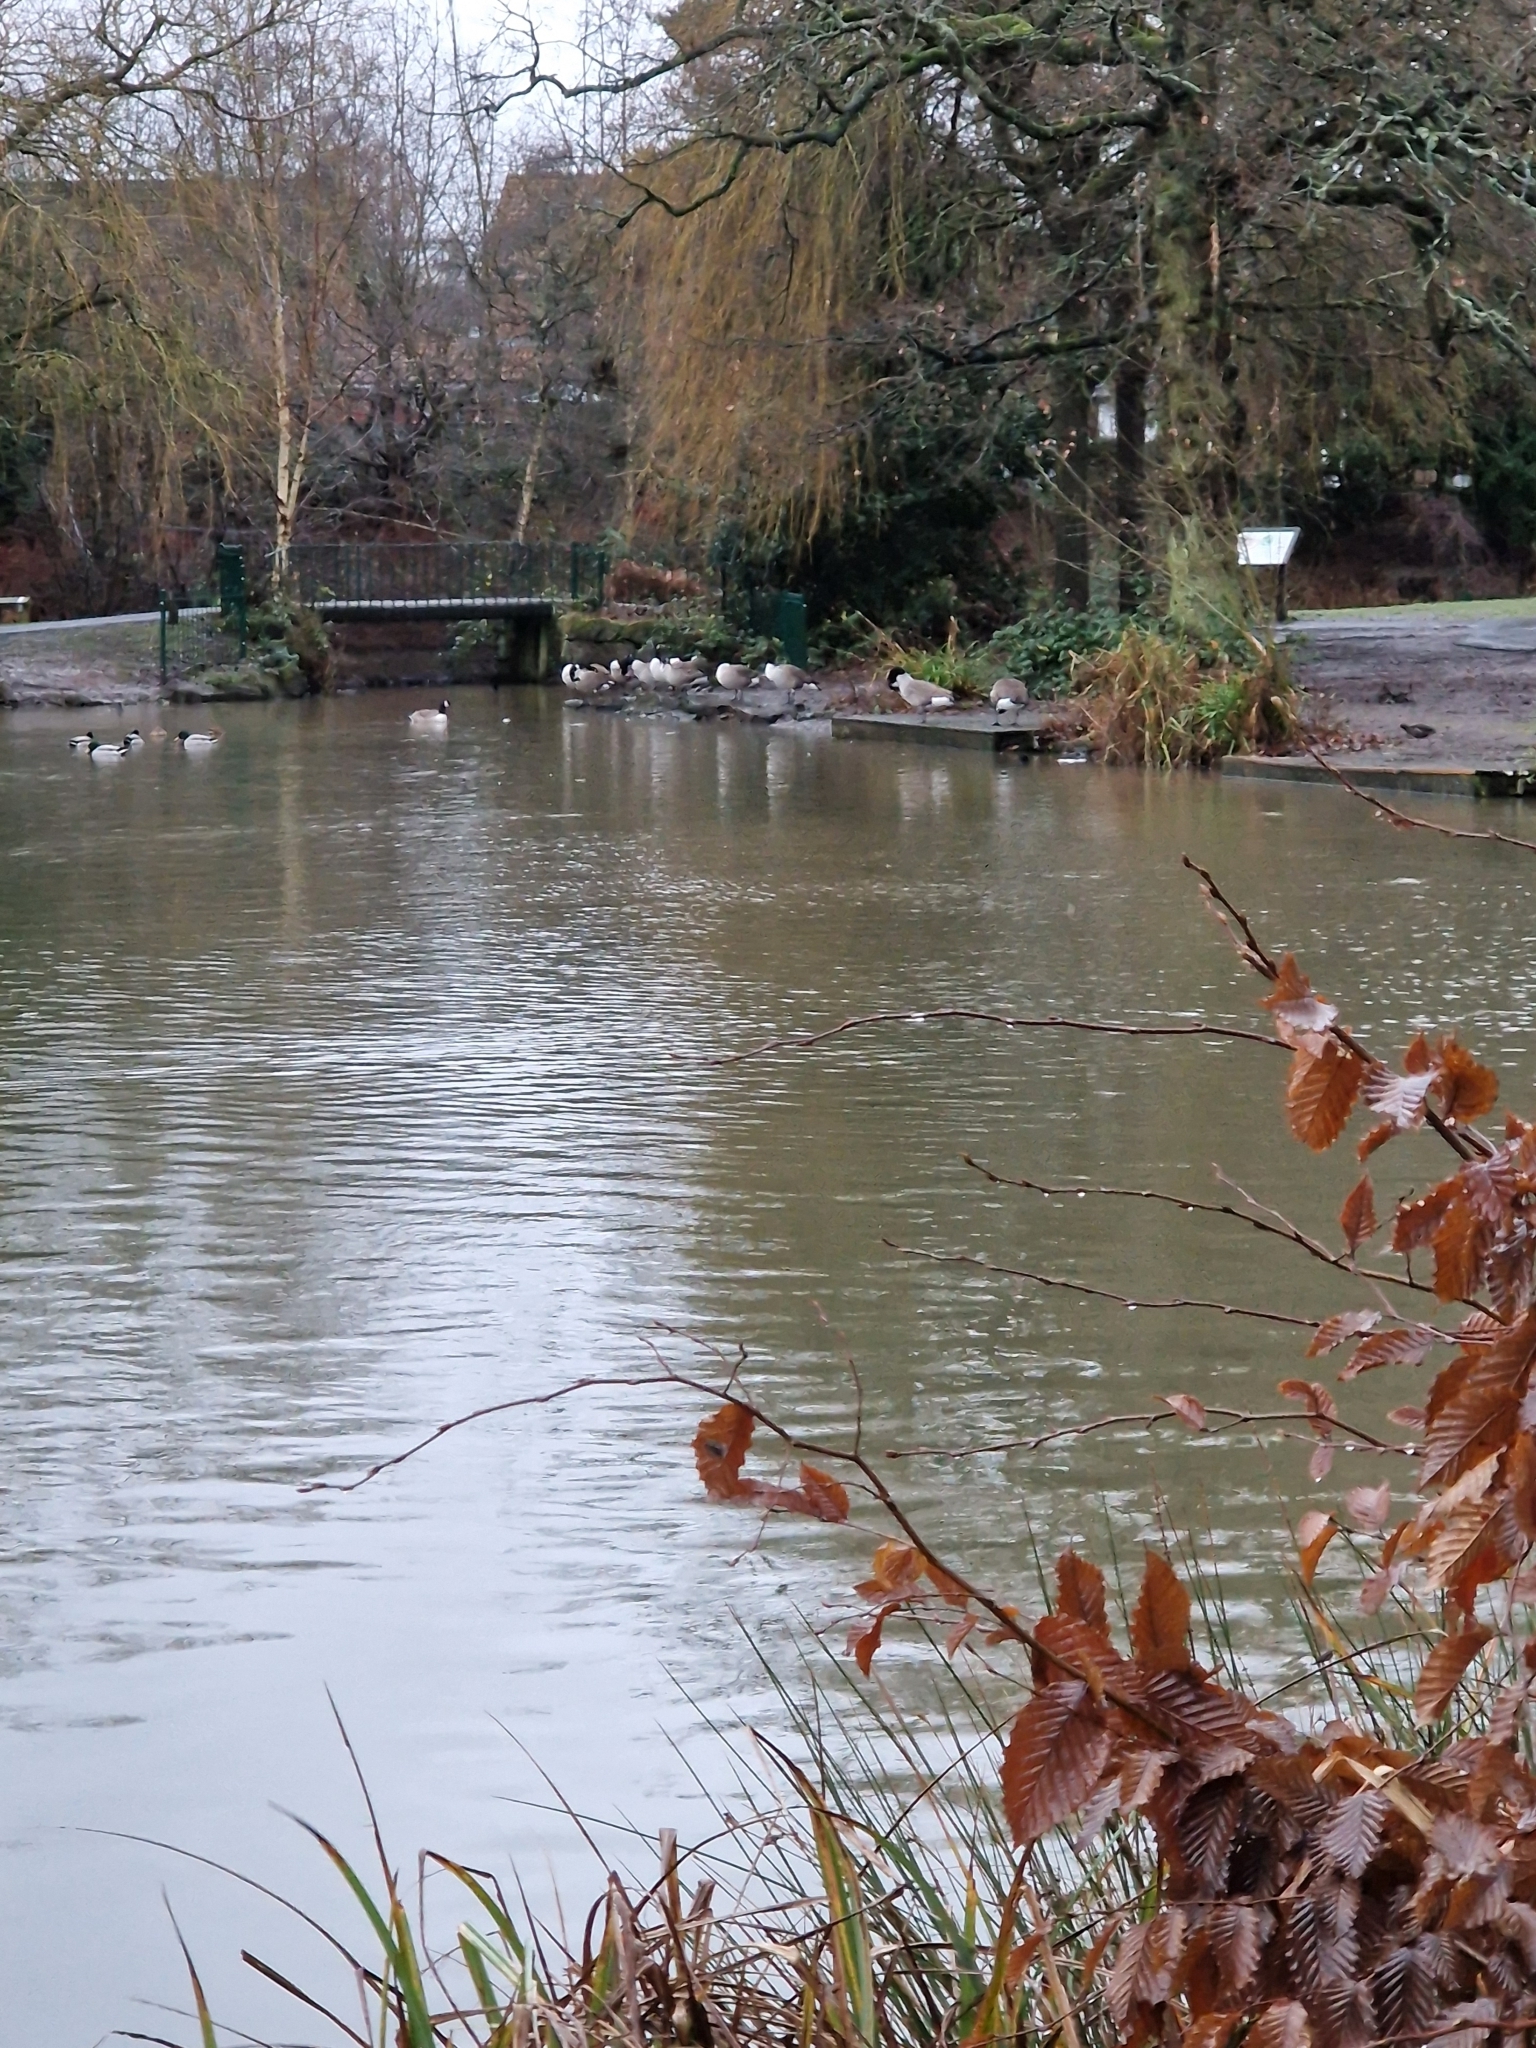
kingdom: Animalia
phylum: Chordata
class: Aves
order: Anseriformes
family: Anatidae
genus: Branta
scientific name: Branta canadensis
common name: Canada goose
